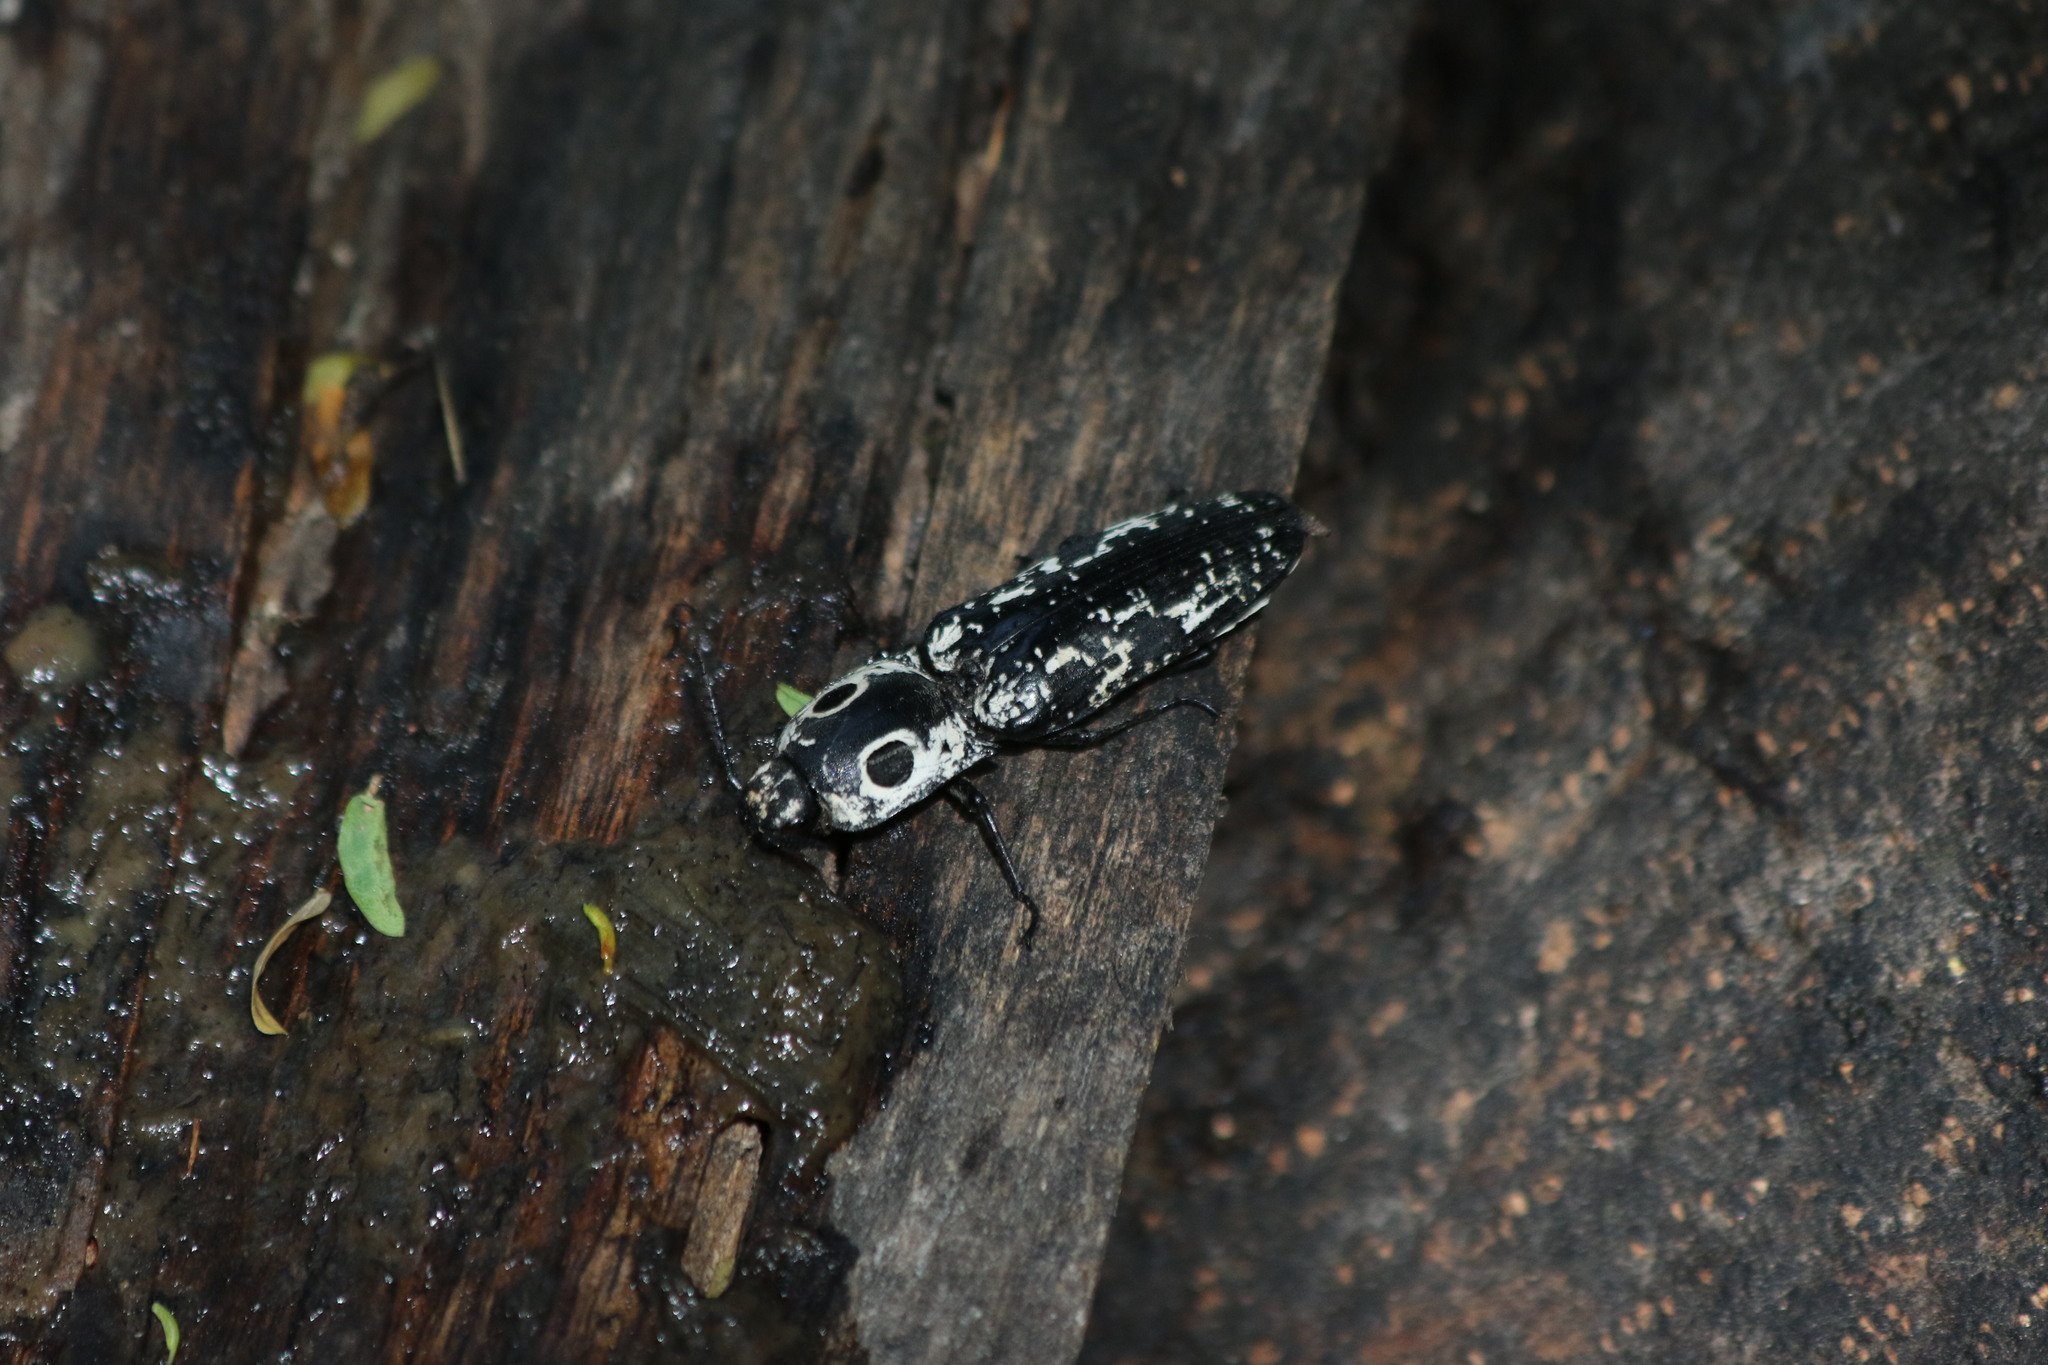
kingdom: Animalia
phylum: Arthropoda
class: Insecta
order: Coleoptera
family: Elateridae
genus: Alaus
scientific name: Alaus
